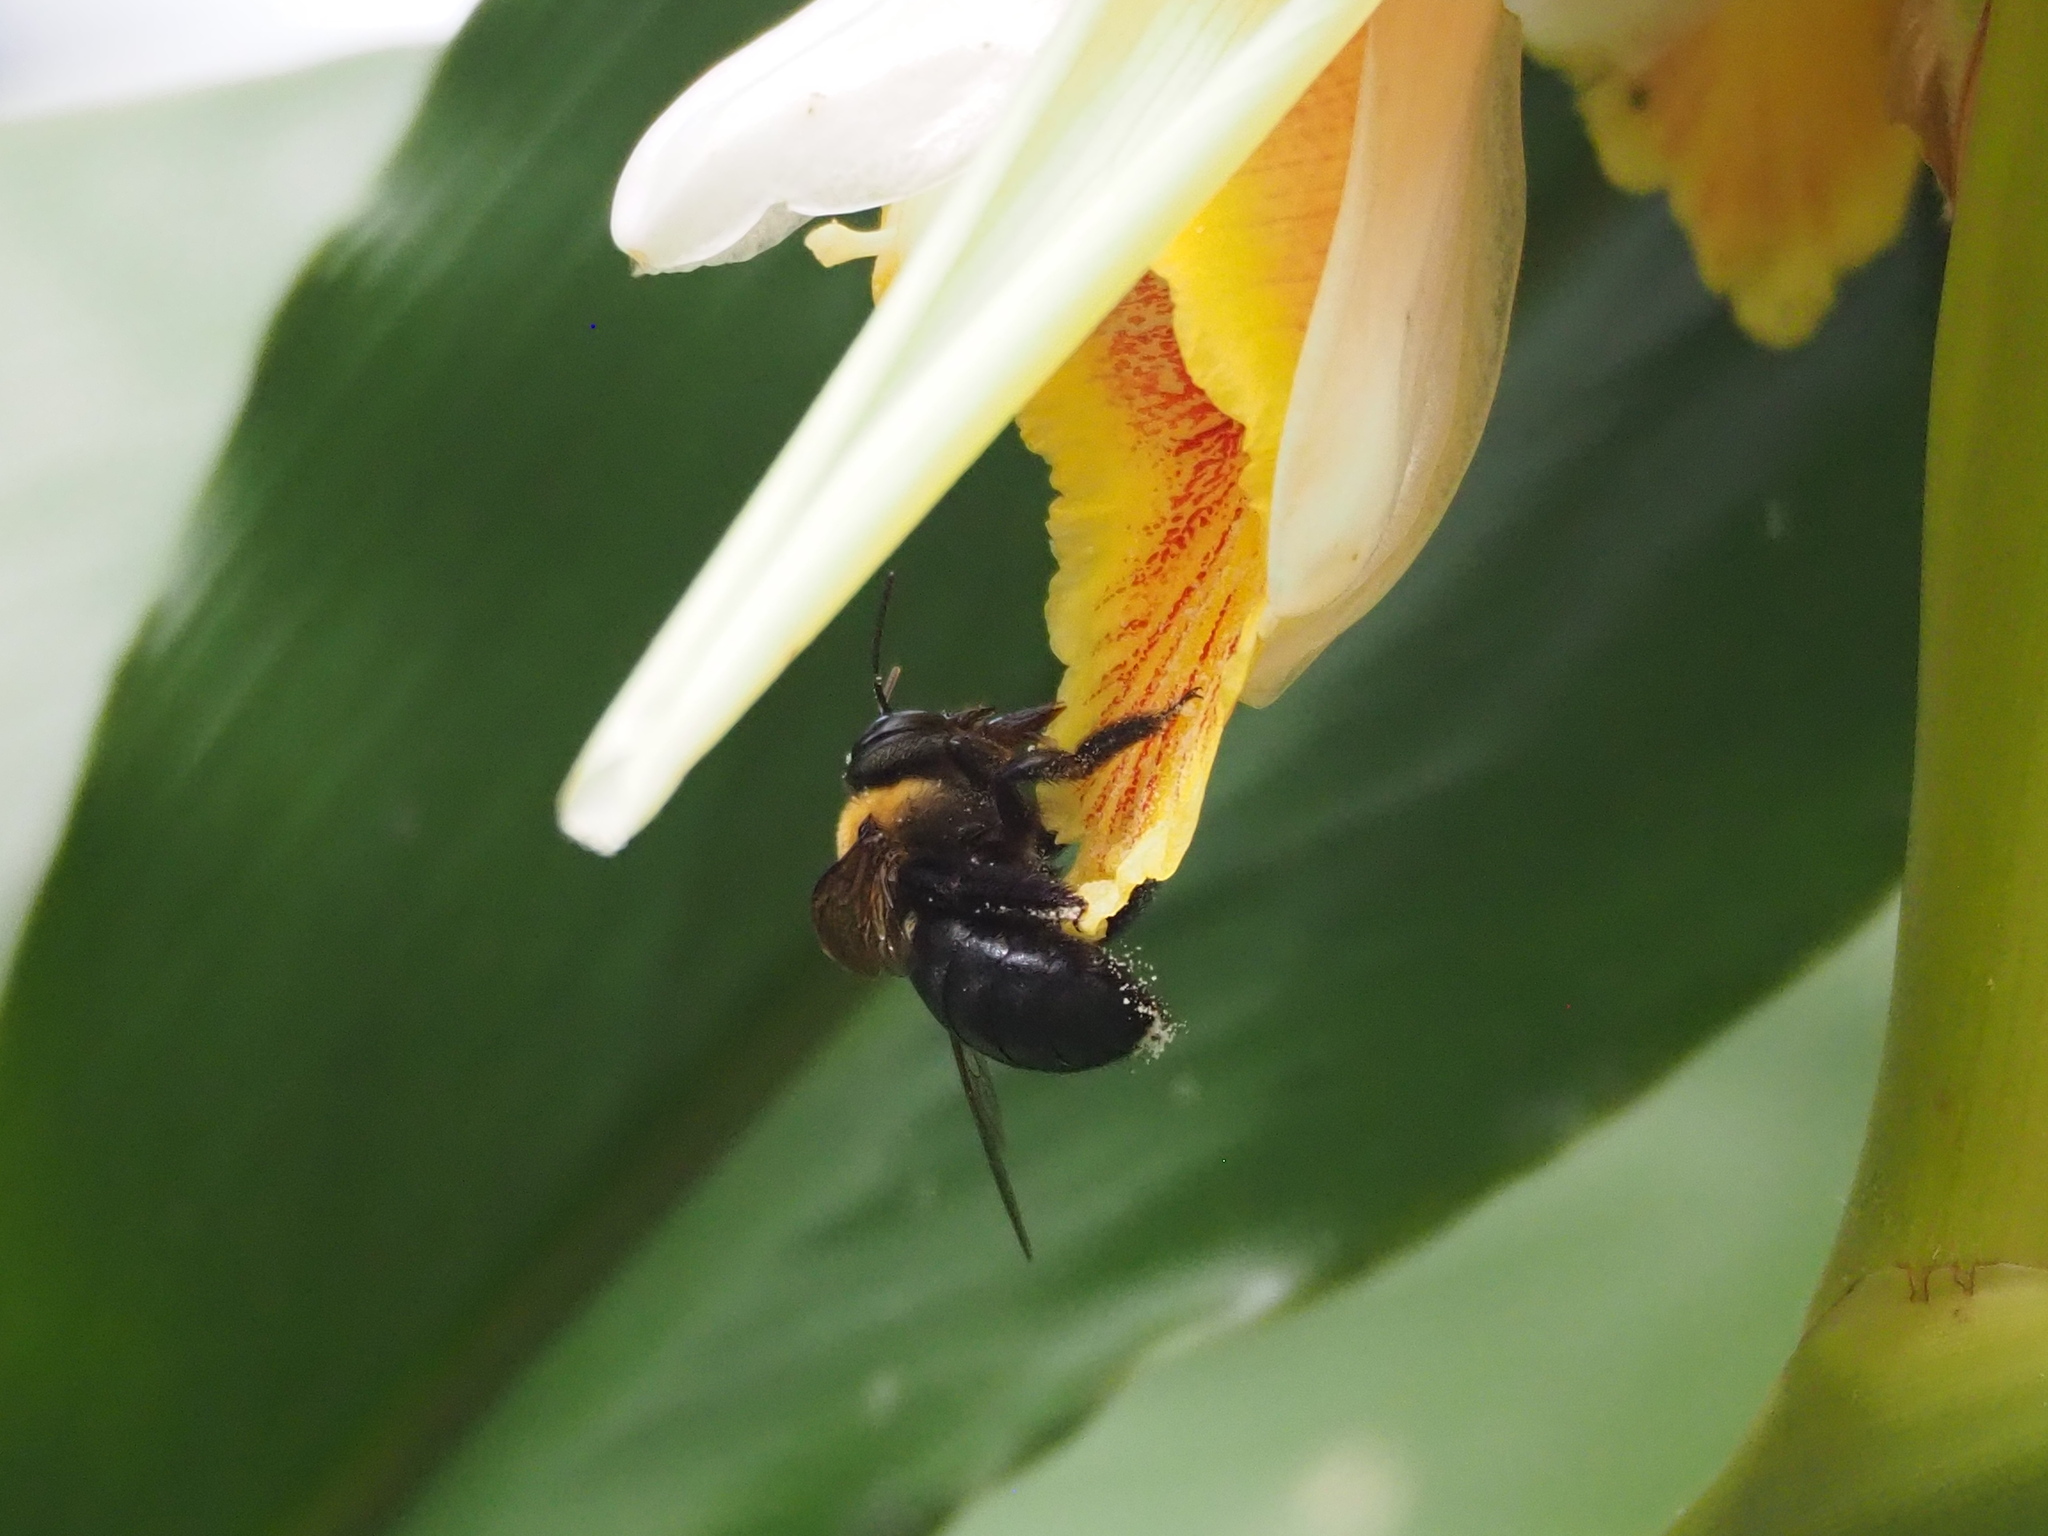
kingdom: Animalia
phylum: Arthropoda
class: Insecta
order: Hymenoptera
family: Apidae
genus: Xylocopa
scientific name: Xylocopa dejeanii
